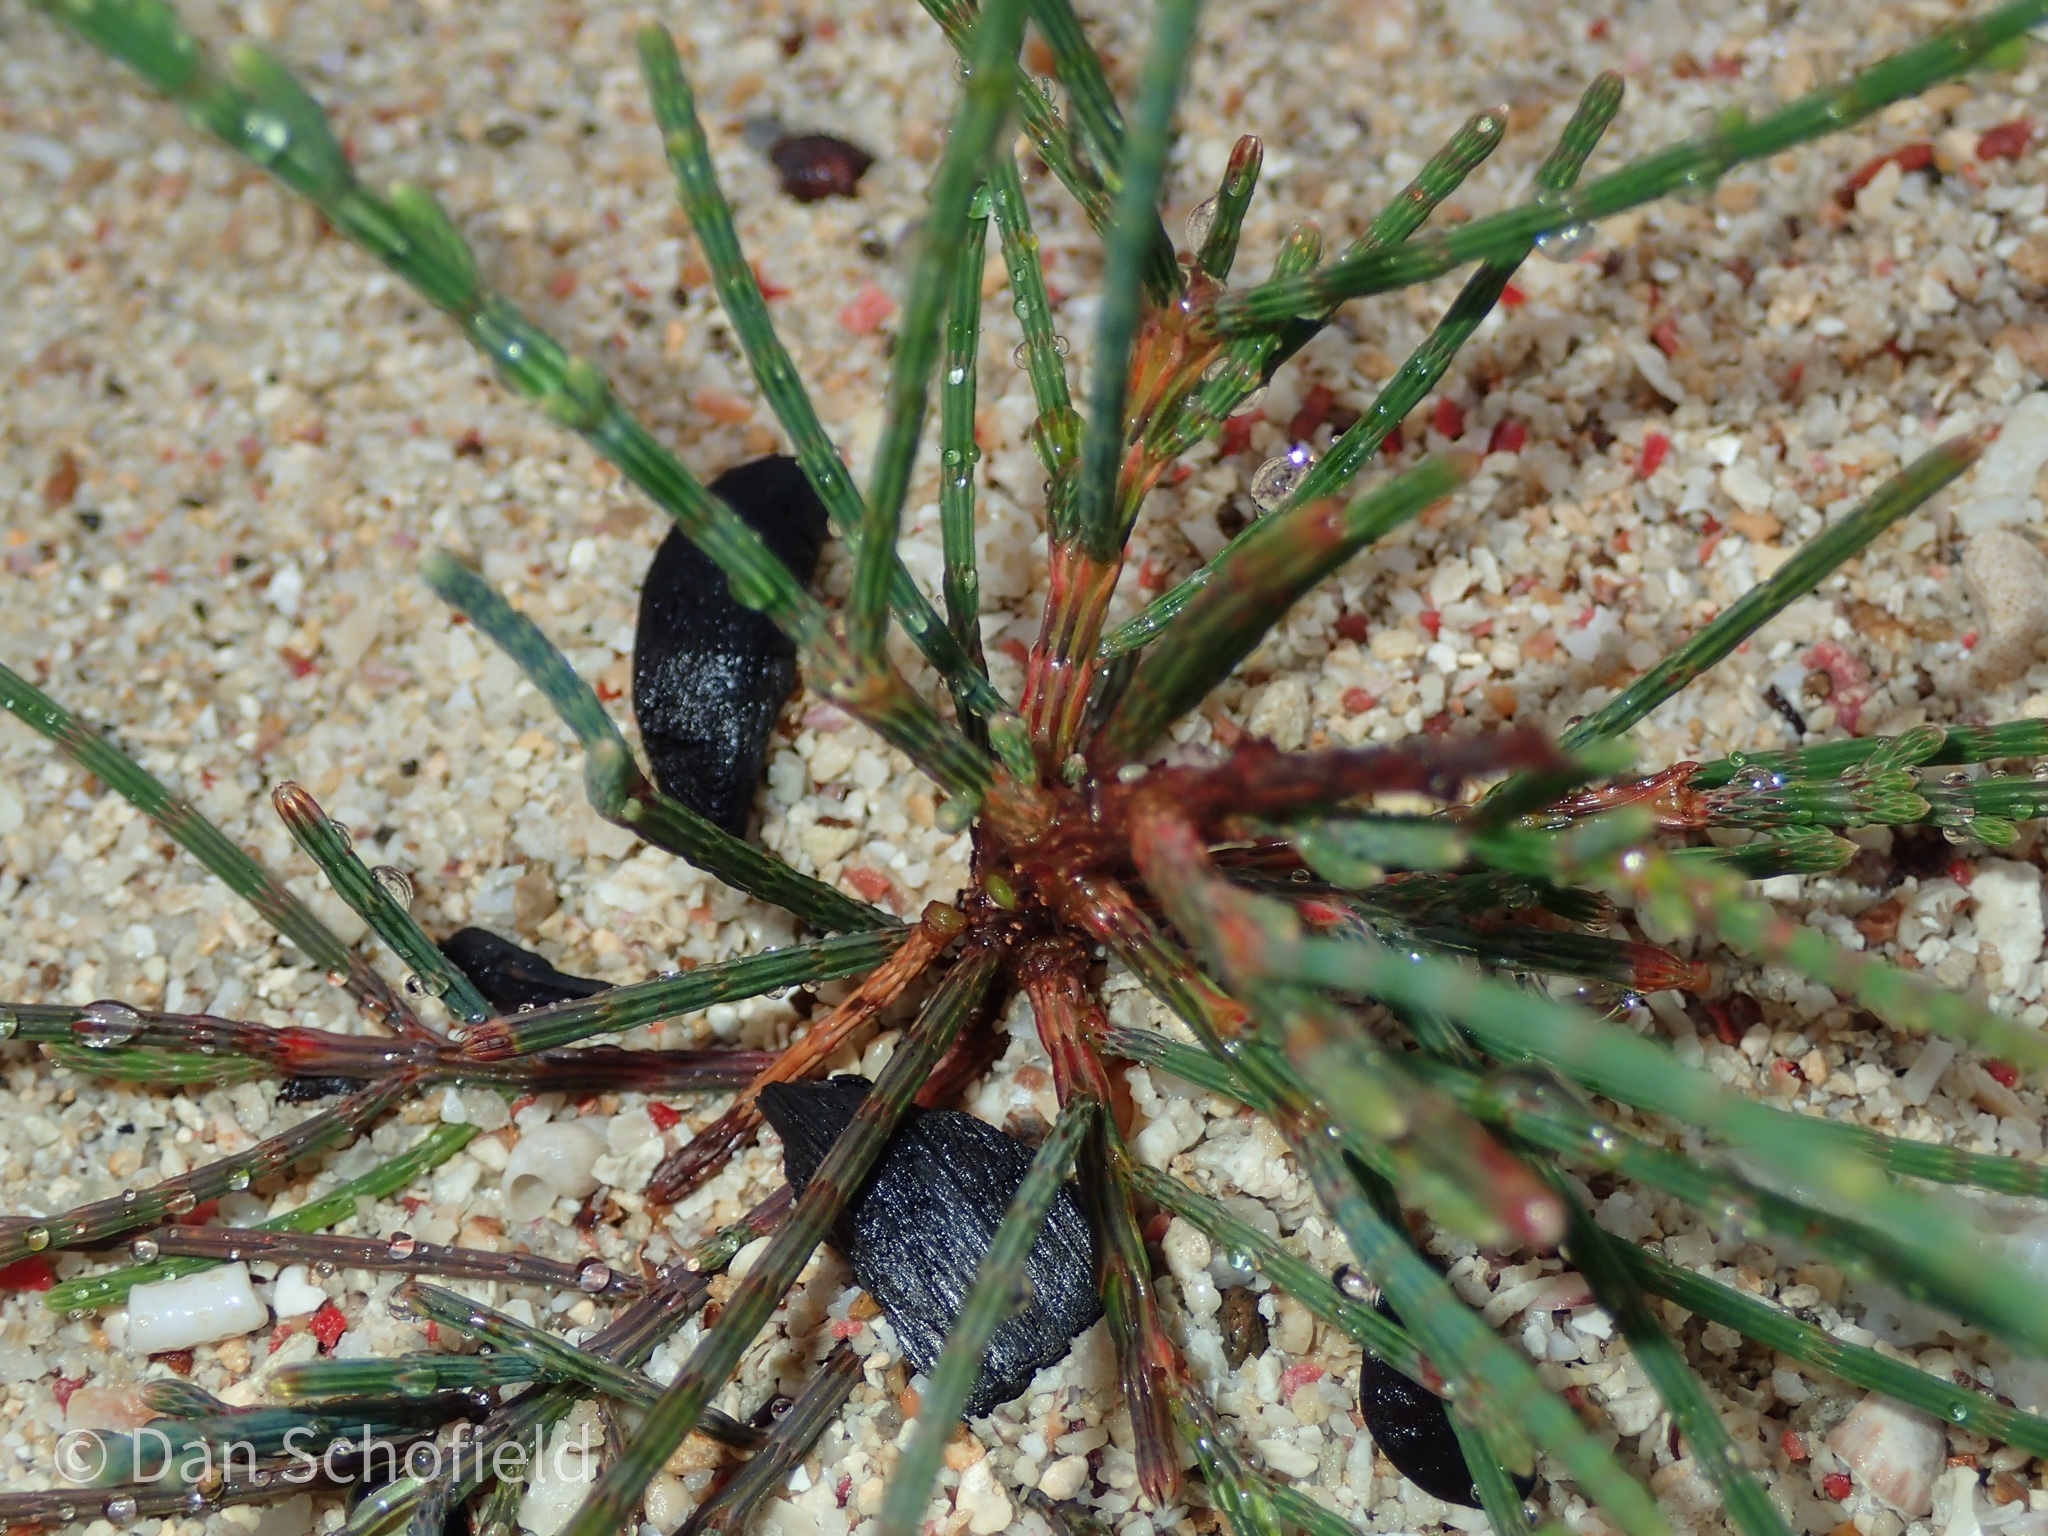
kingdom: Plantae
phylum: Tracheophyta
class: Magnoliopsida
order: Fagales
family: Casuarinaceae
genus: Casuarina
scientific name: Casuarina equisetifolia
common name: Beach sheoak
